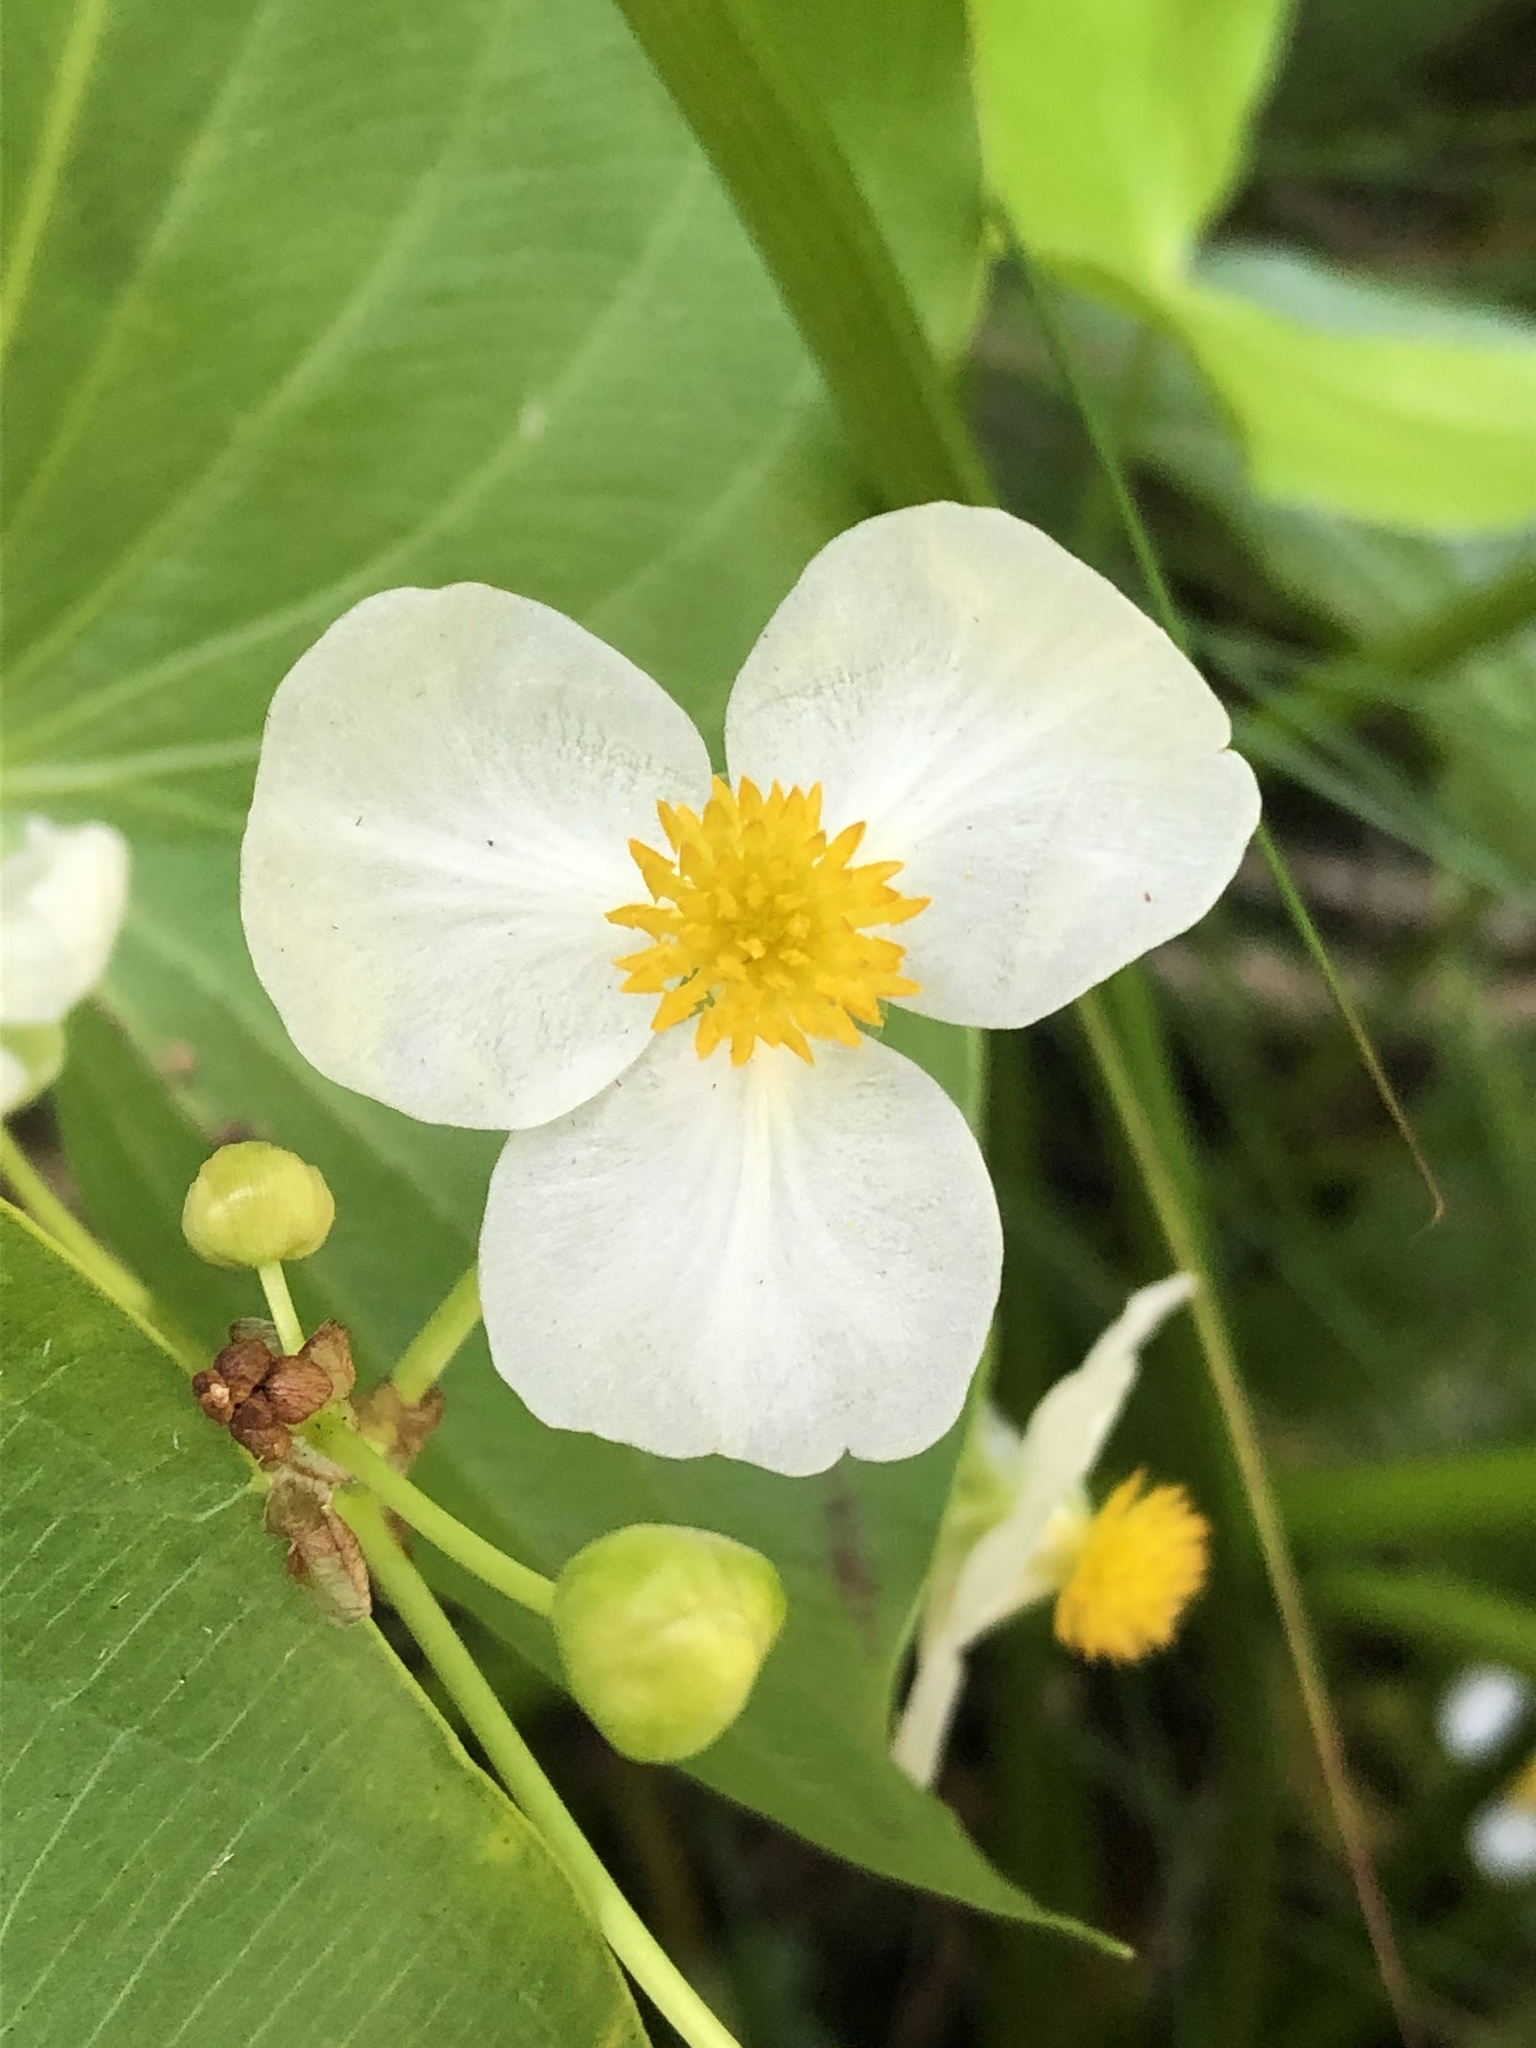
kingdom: Plantae
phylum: Tracheophyta
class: Liliopsida
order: Alismatales
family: Alismataceae
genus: Sagittaria
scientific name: Sagittaria latifolia
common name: Duck-potato
